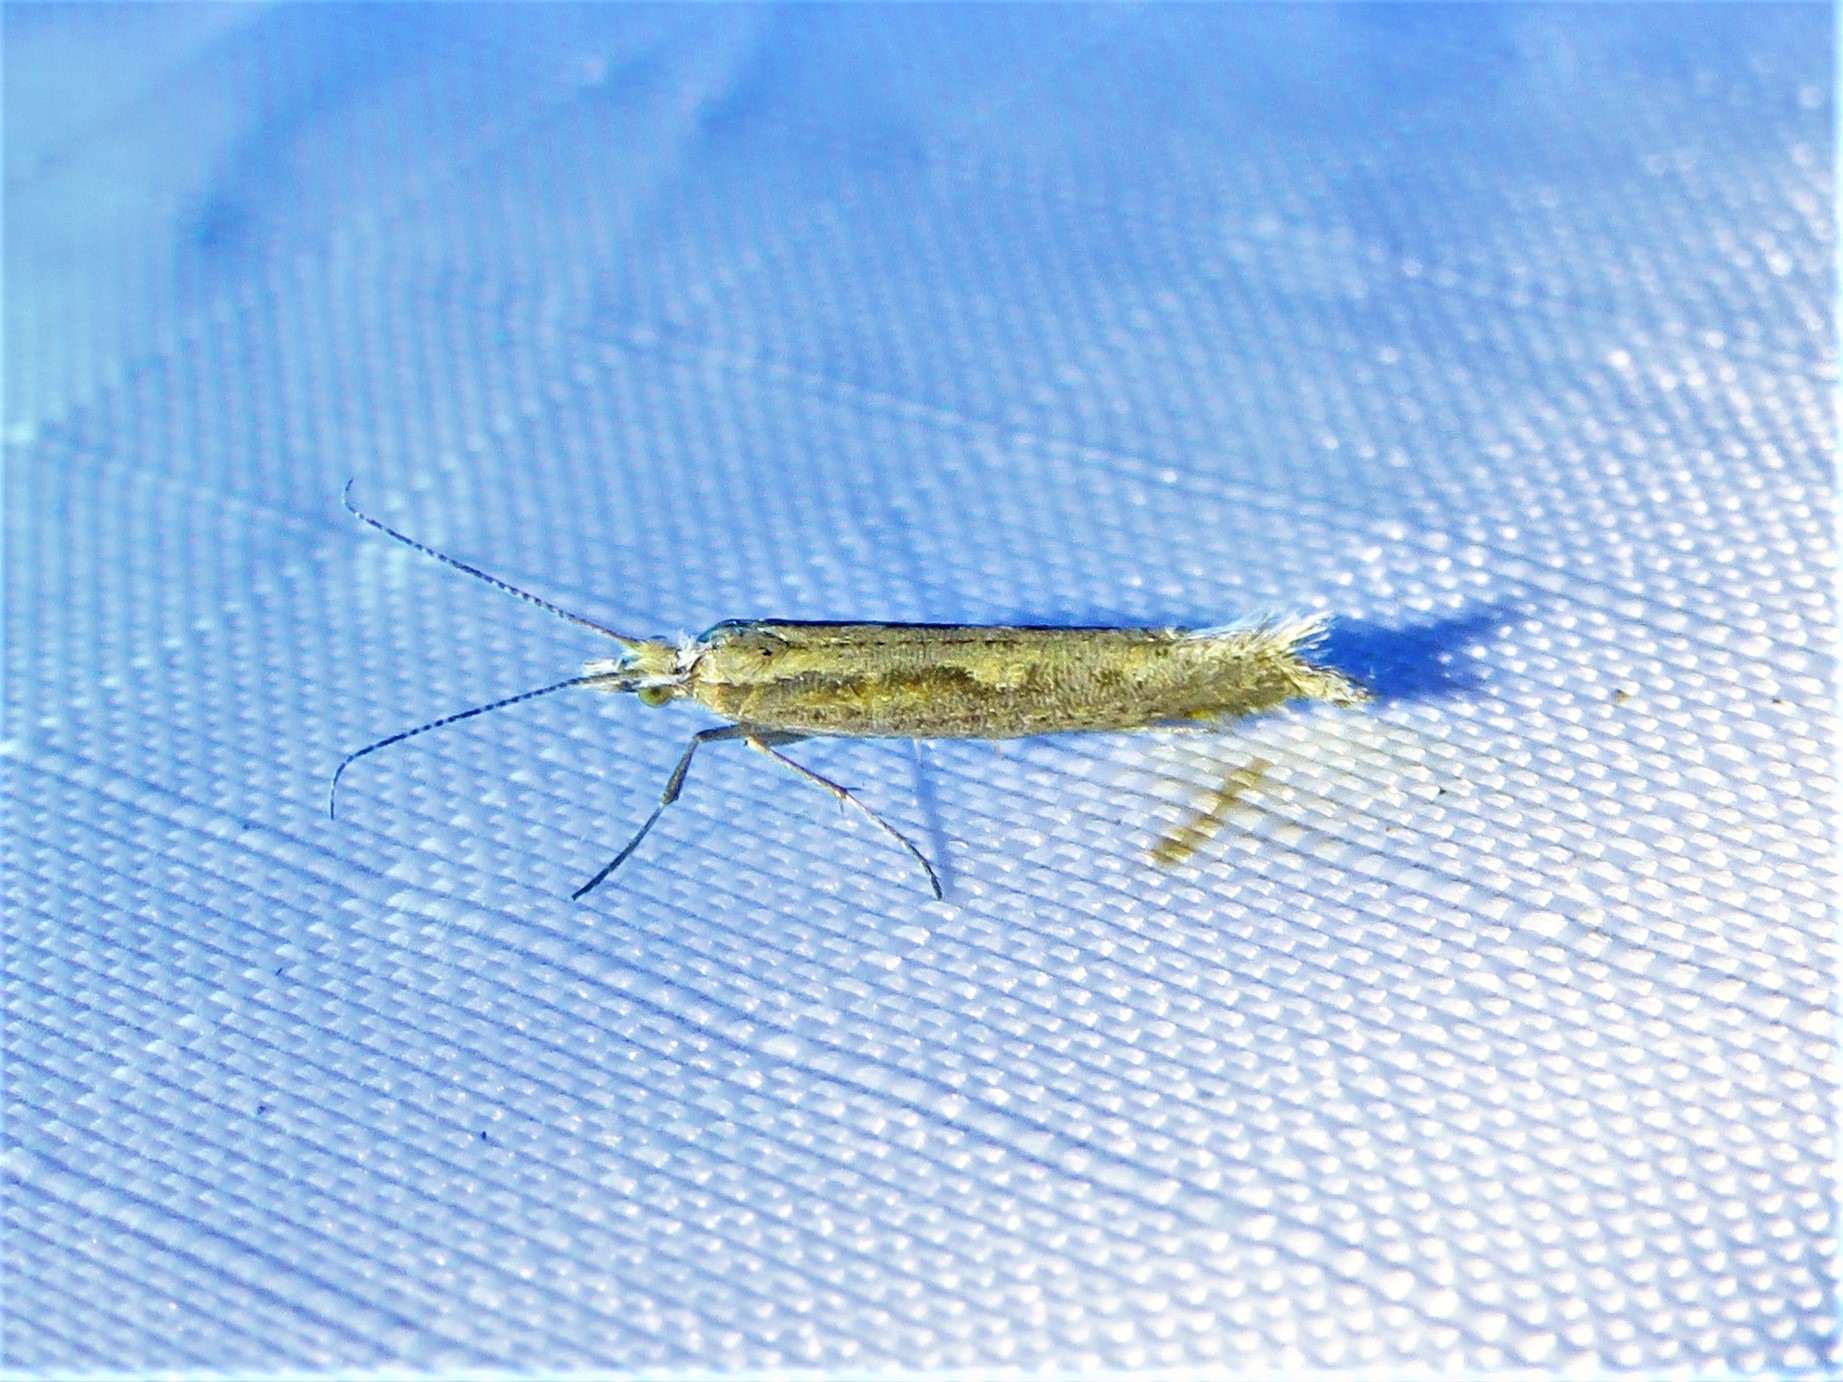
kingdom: Animalia
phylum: Arthropoda
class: Insecta
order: Lepidoptera
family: Plutellidae
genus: Plutella
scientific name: Plutella xylostella
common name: Diamond-back moth
